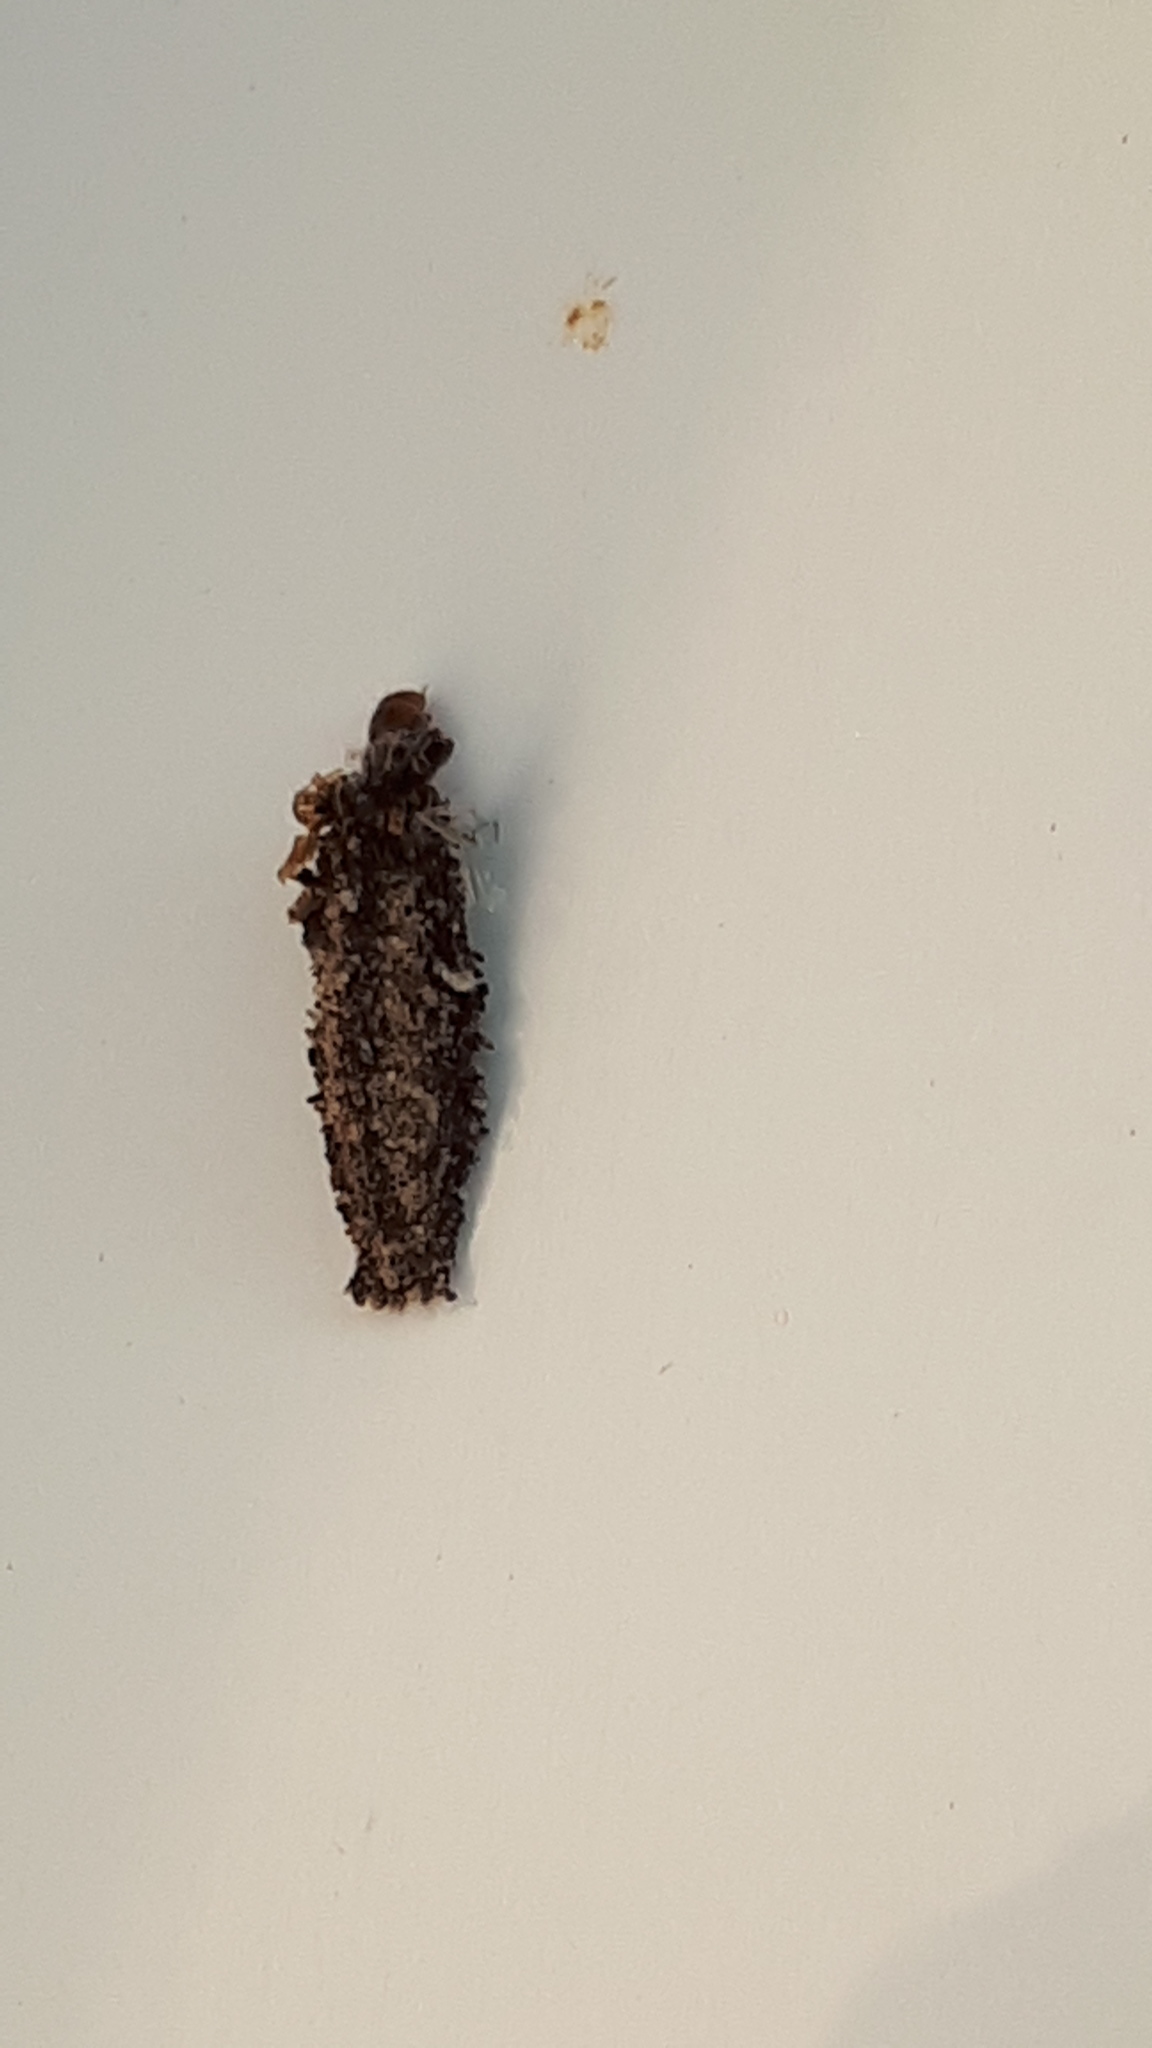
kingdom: Animalia
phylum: Arthropoda
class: Insecta
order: Lepidoptera
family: Psychidae
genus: Dahlica
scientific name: Dahlica triquetrella
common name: Narrow lichen case-bearer
